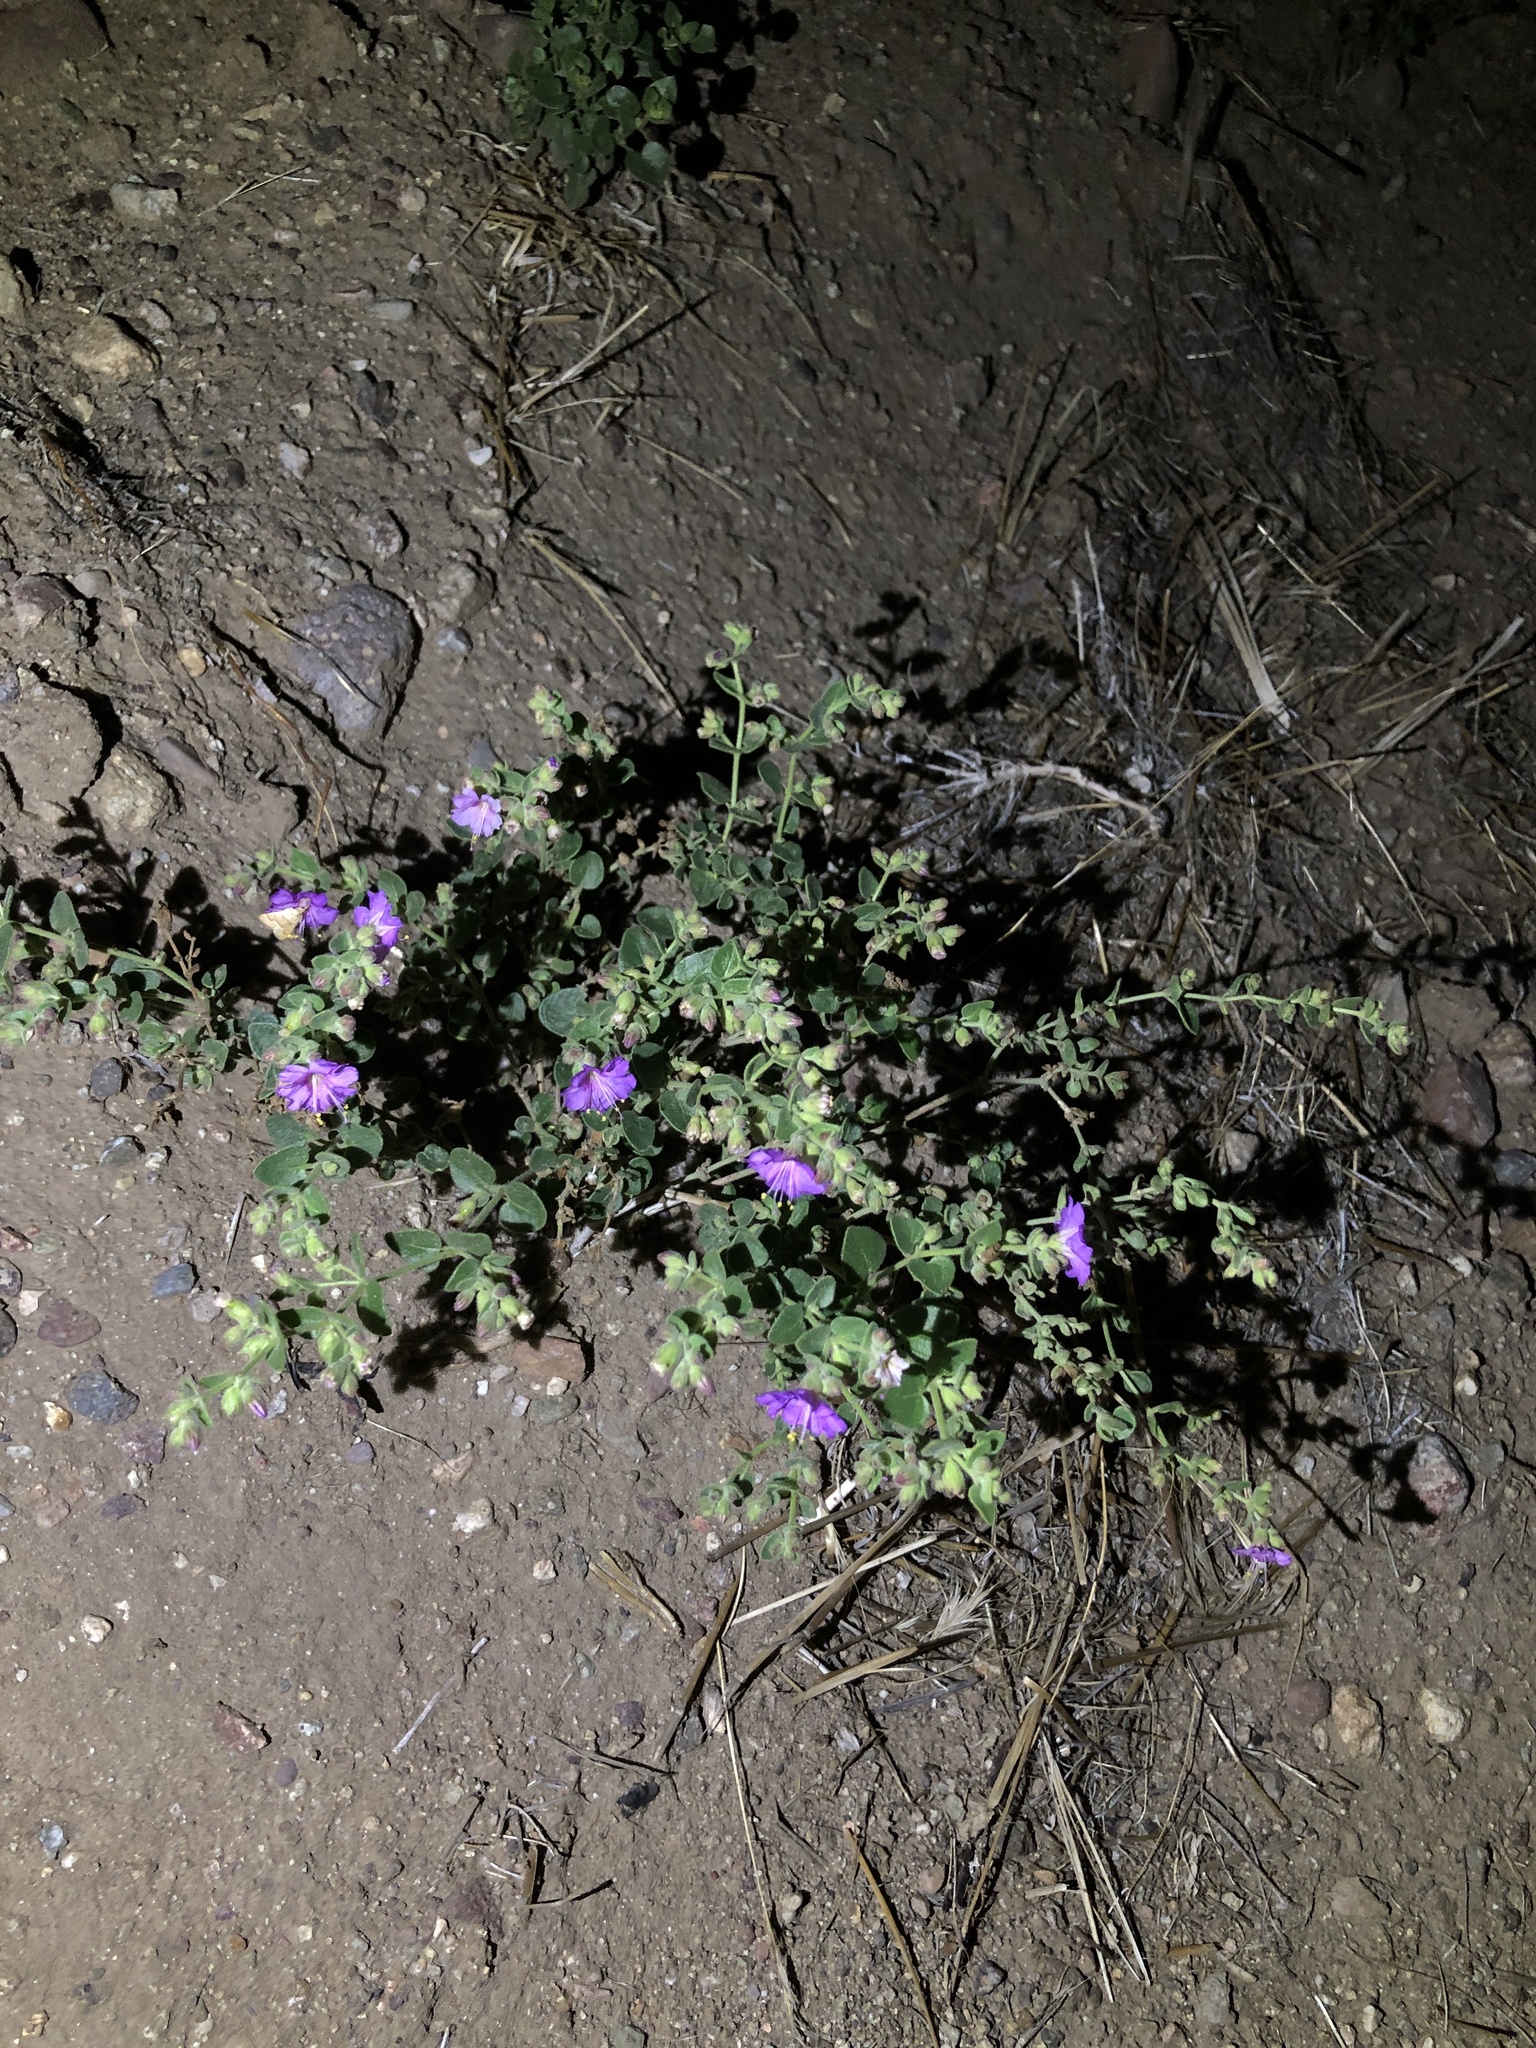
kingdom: Plantae
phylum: Tracheophyta
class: Magnoliopsida
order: Caryophyllales
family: Nyctaginaceae
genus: Mirabilis
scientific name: Mirabilis laevis
